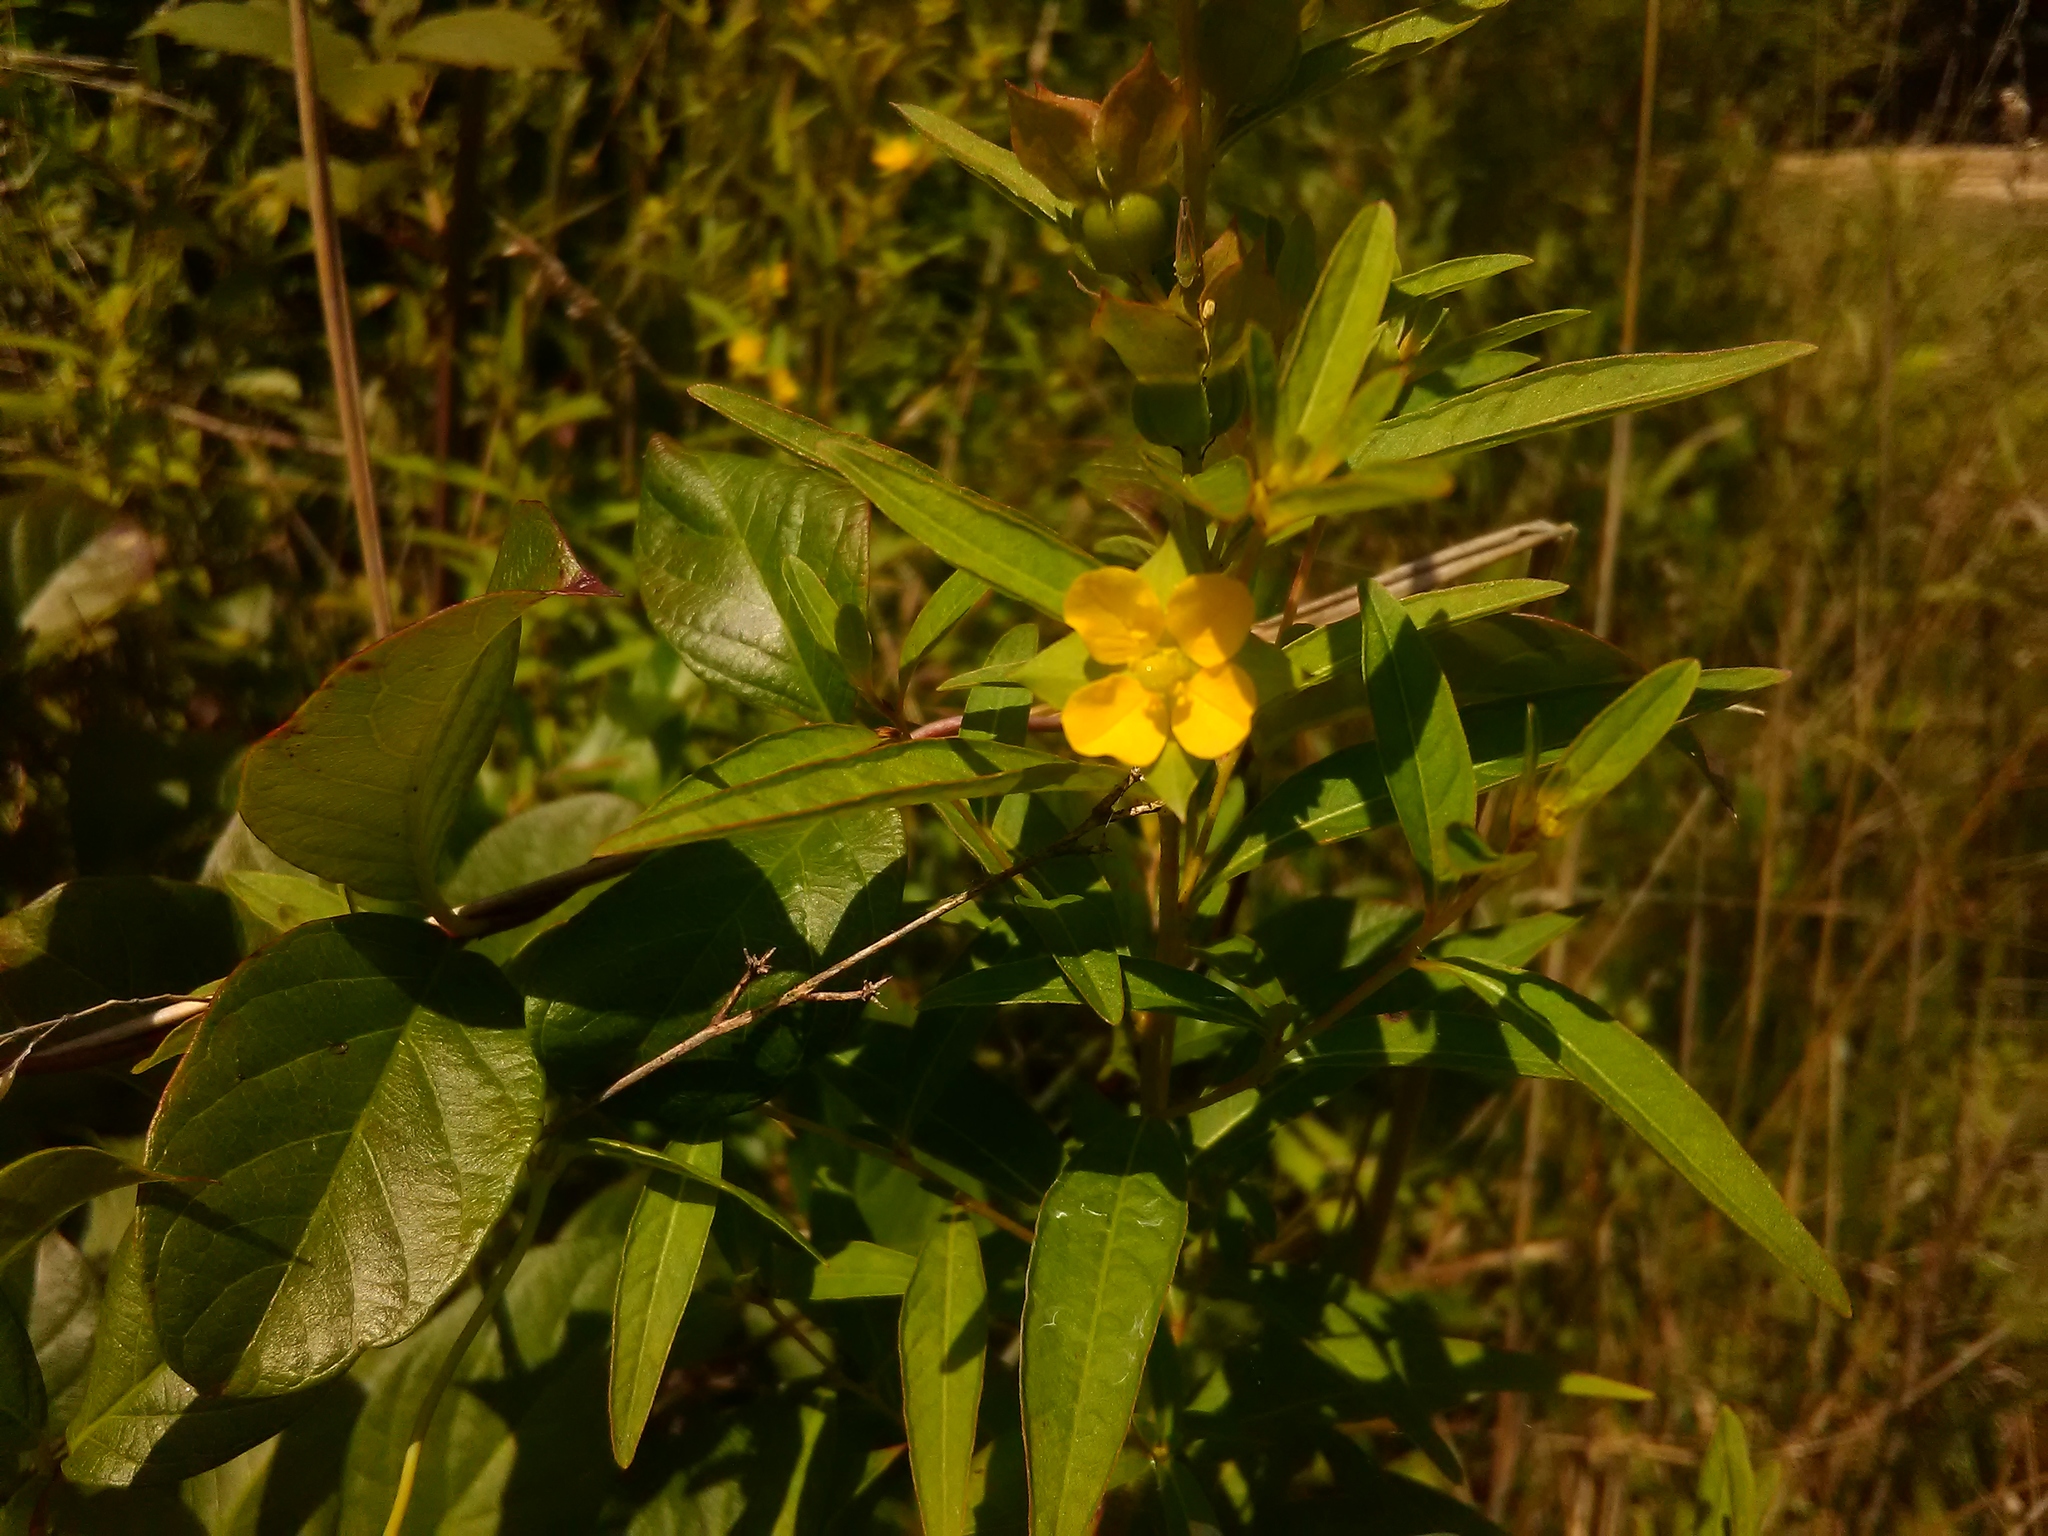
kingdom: Plantae
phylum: Tracheophyta
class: Magnoliopsida
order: Myrtales
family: Onagraceae
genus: Ludwigia
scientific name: Ludwigia alternifolia
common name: Rattlebox
